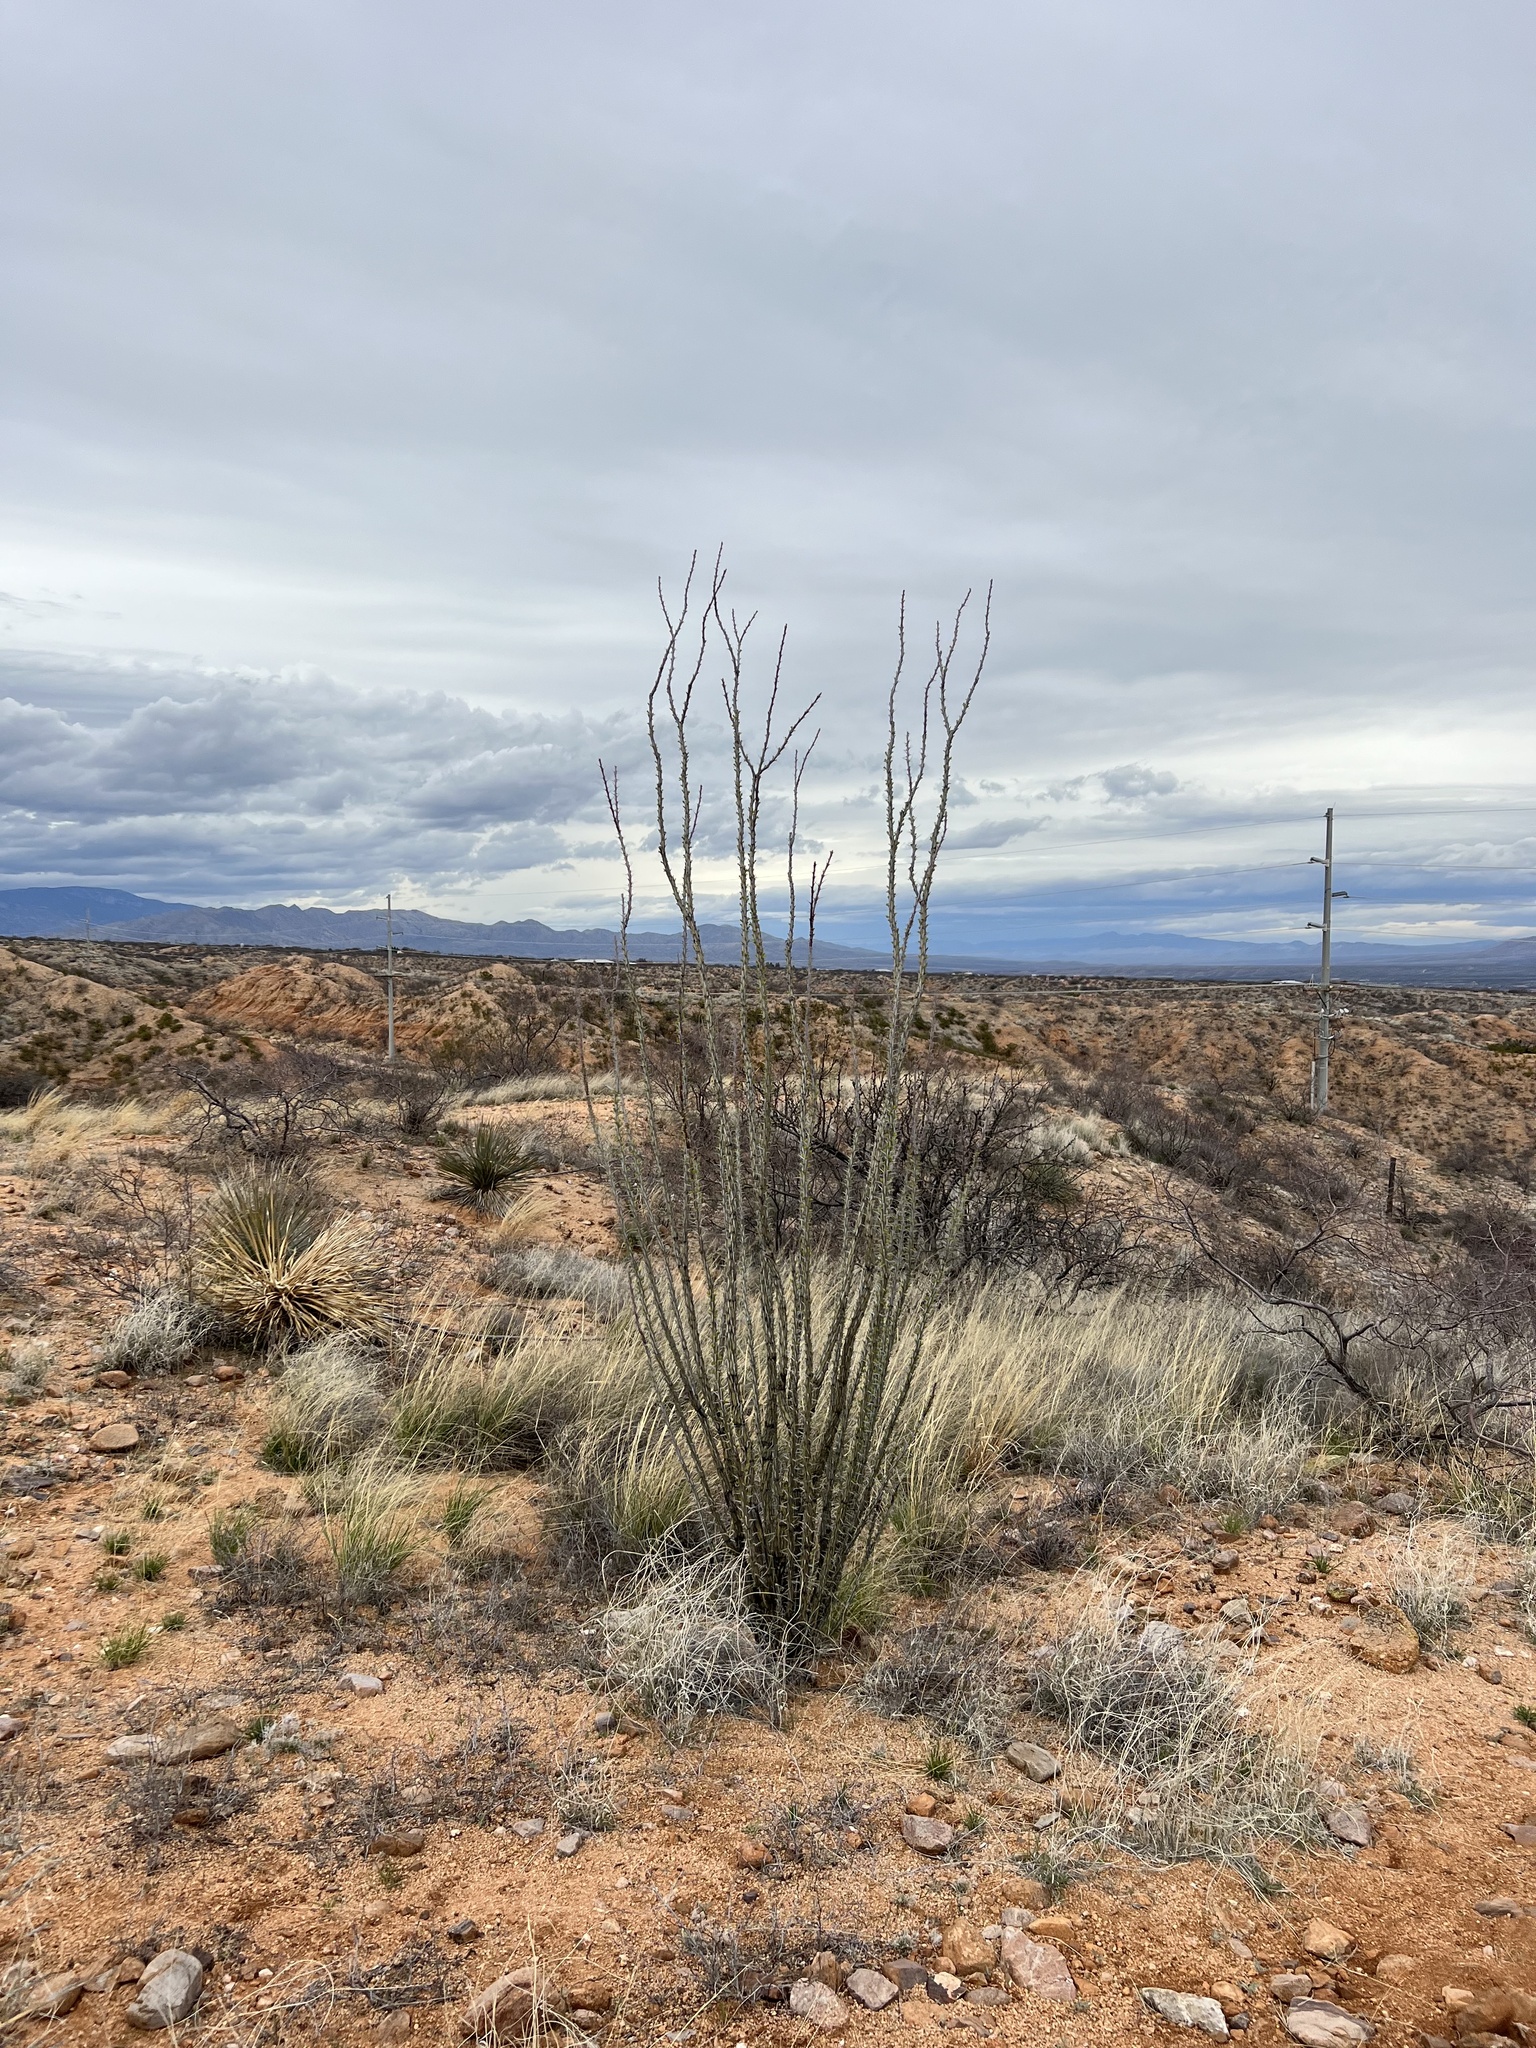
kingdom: Plantae
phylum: Tracheophyta
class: Magnoliopsida
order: Ericales
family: Fouquieriaceae
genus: Fouquieria
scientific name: Fouquieria splendens
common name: Vine-cactus
